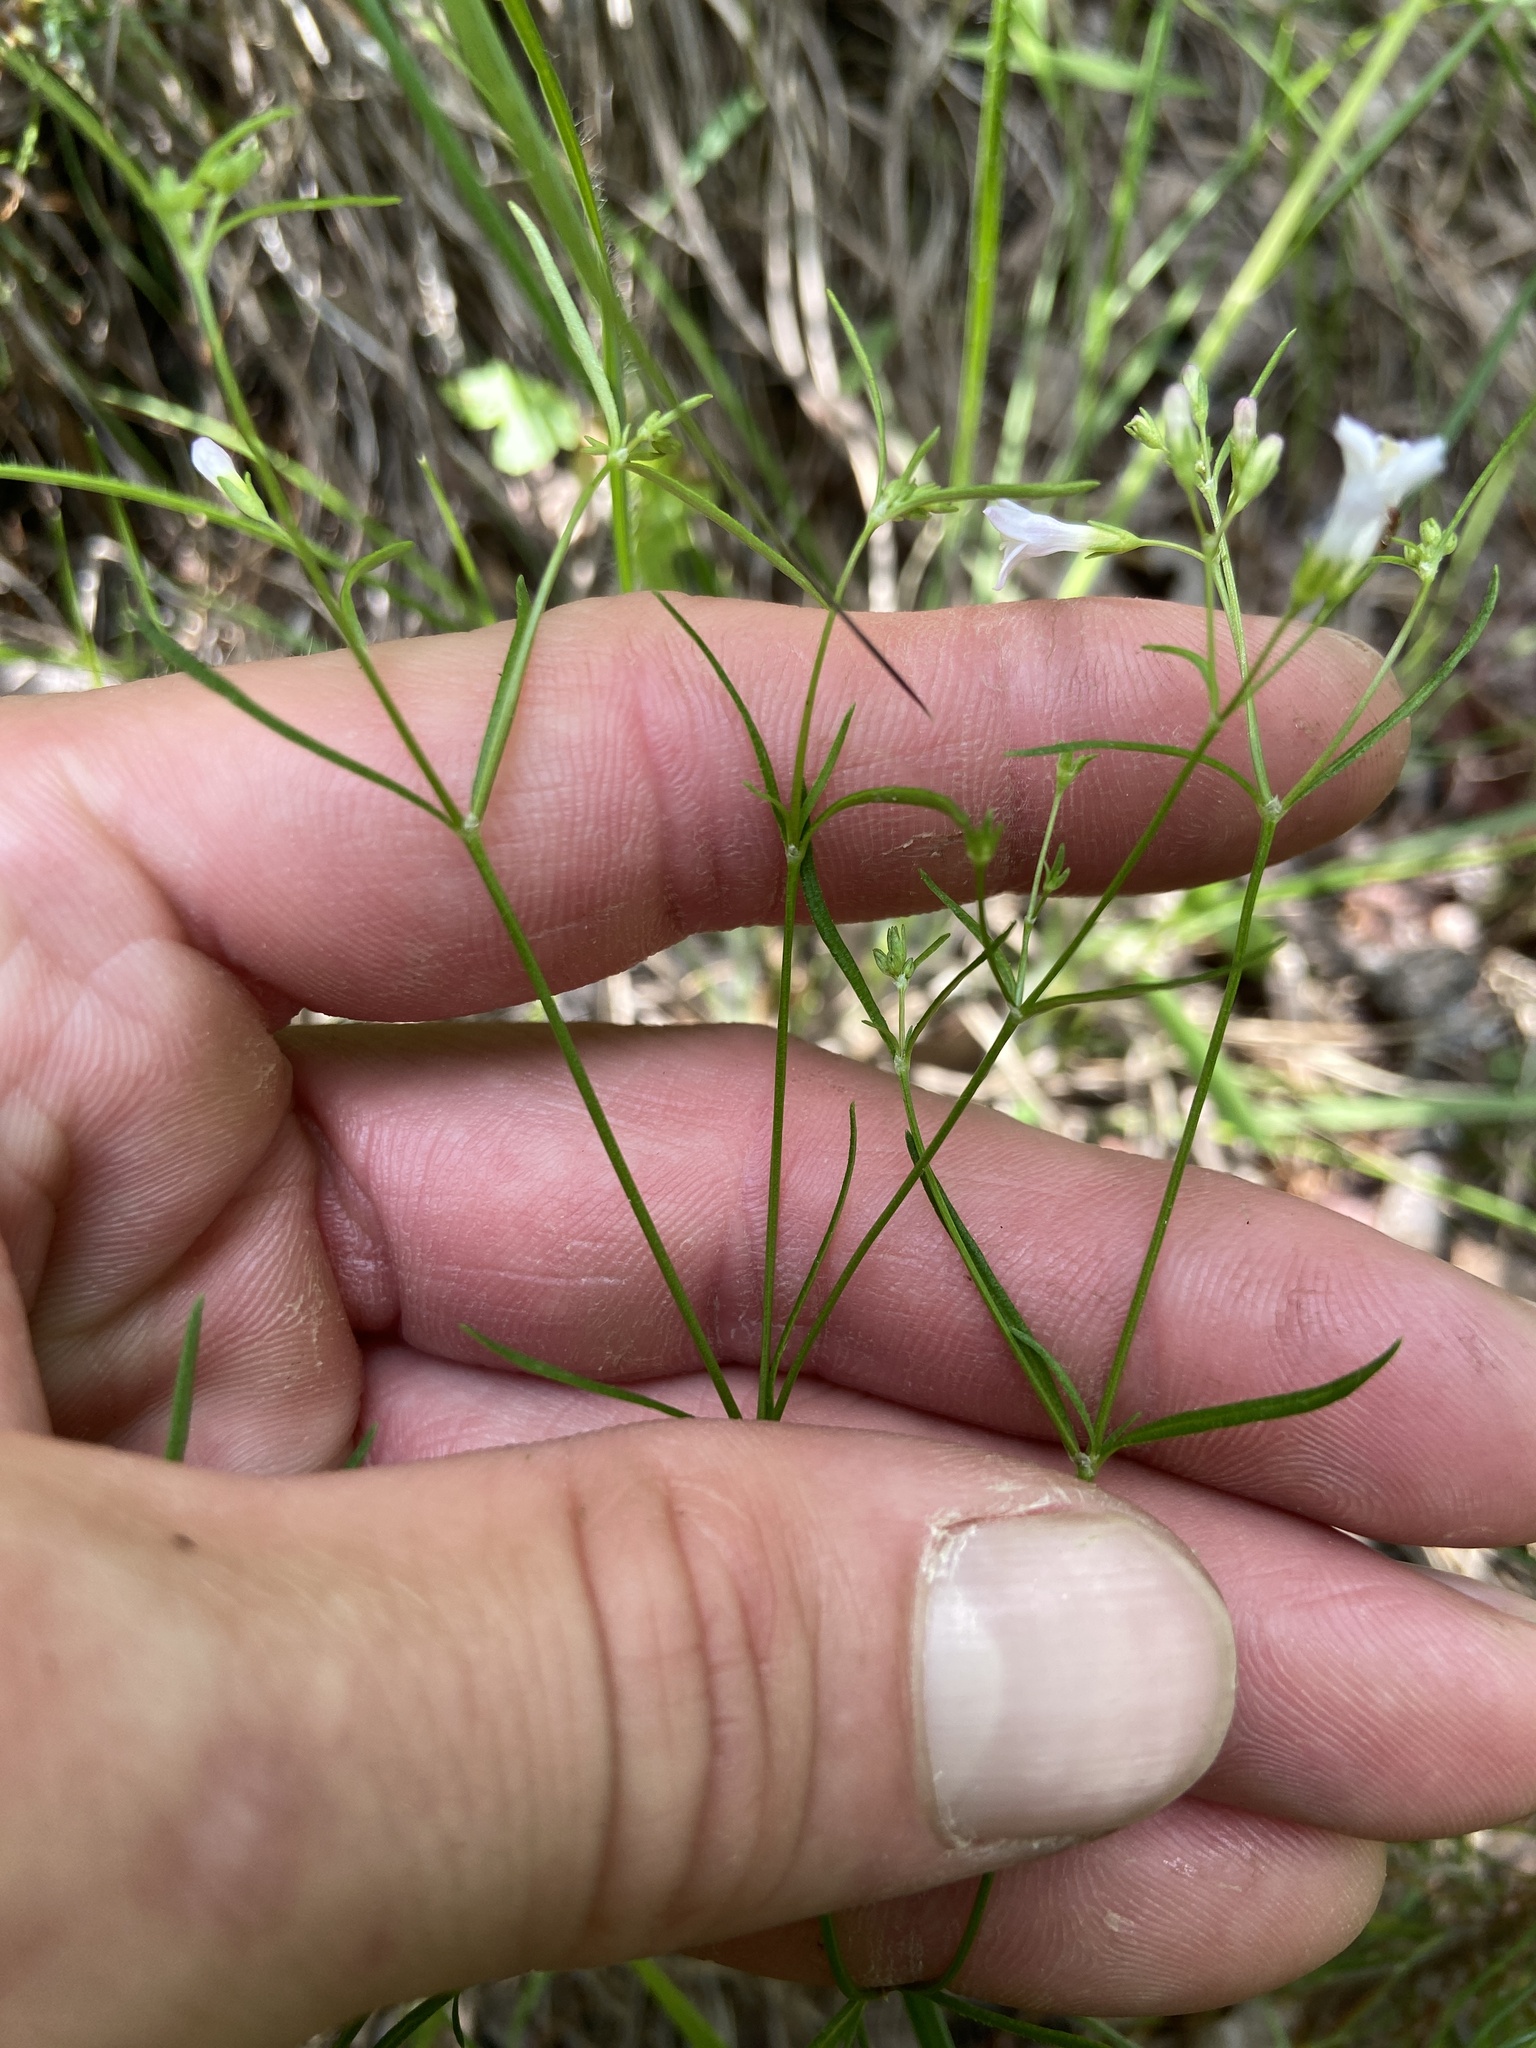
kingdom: Plantae
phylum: Tracheophyta
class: Magnoliopsida
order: Gentianales
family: Rubiaceae
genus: Houstonia
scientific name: Houstonia longifolia
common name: Long-leaved bluets
